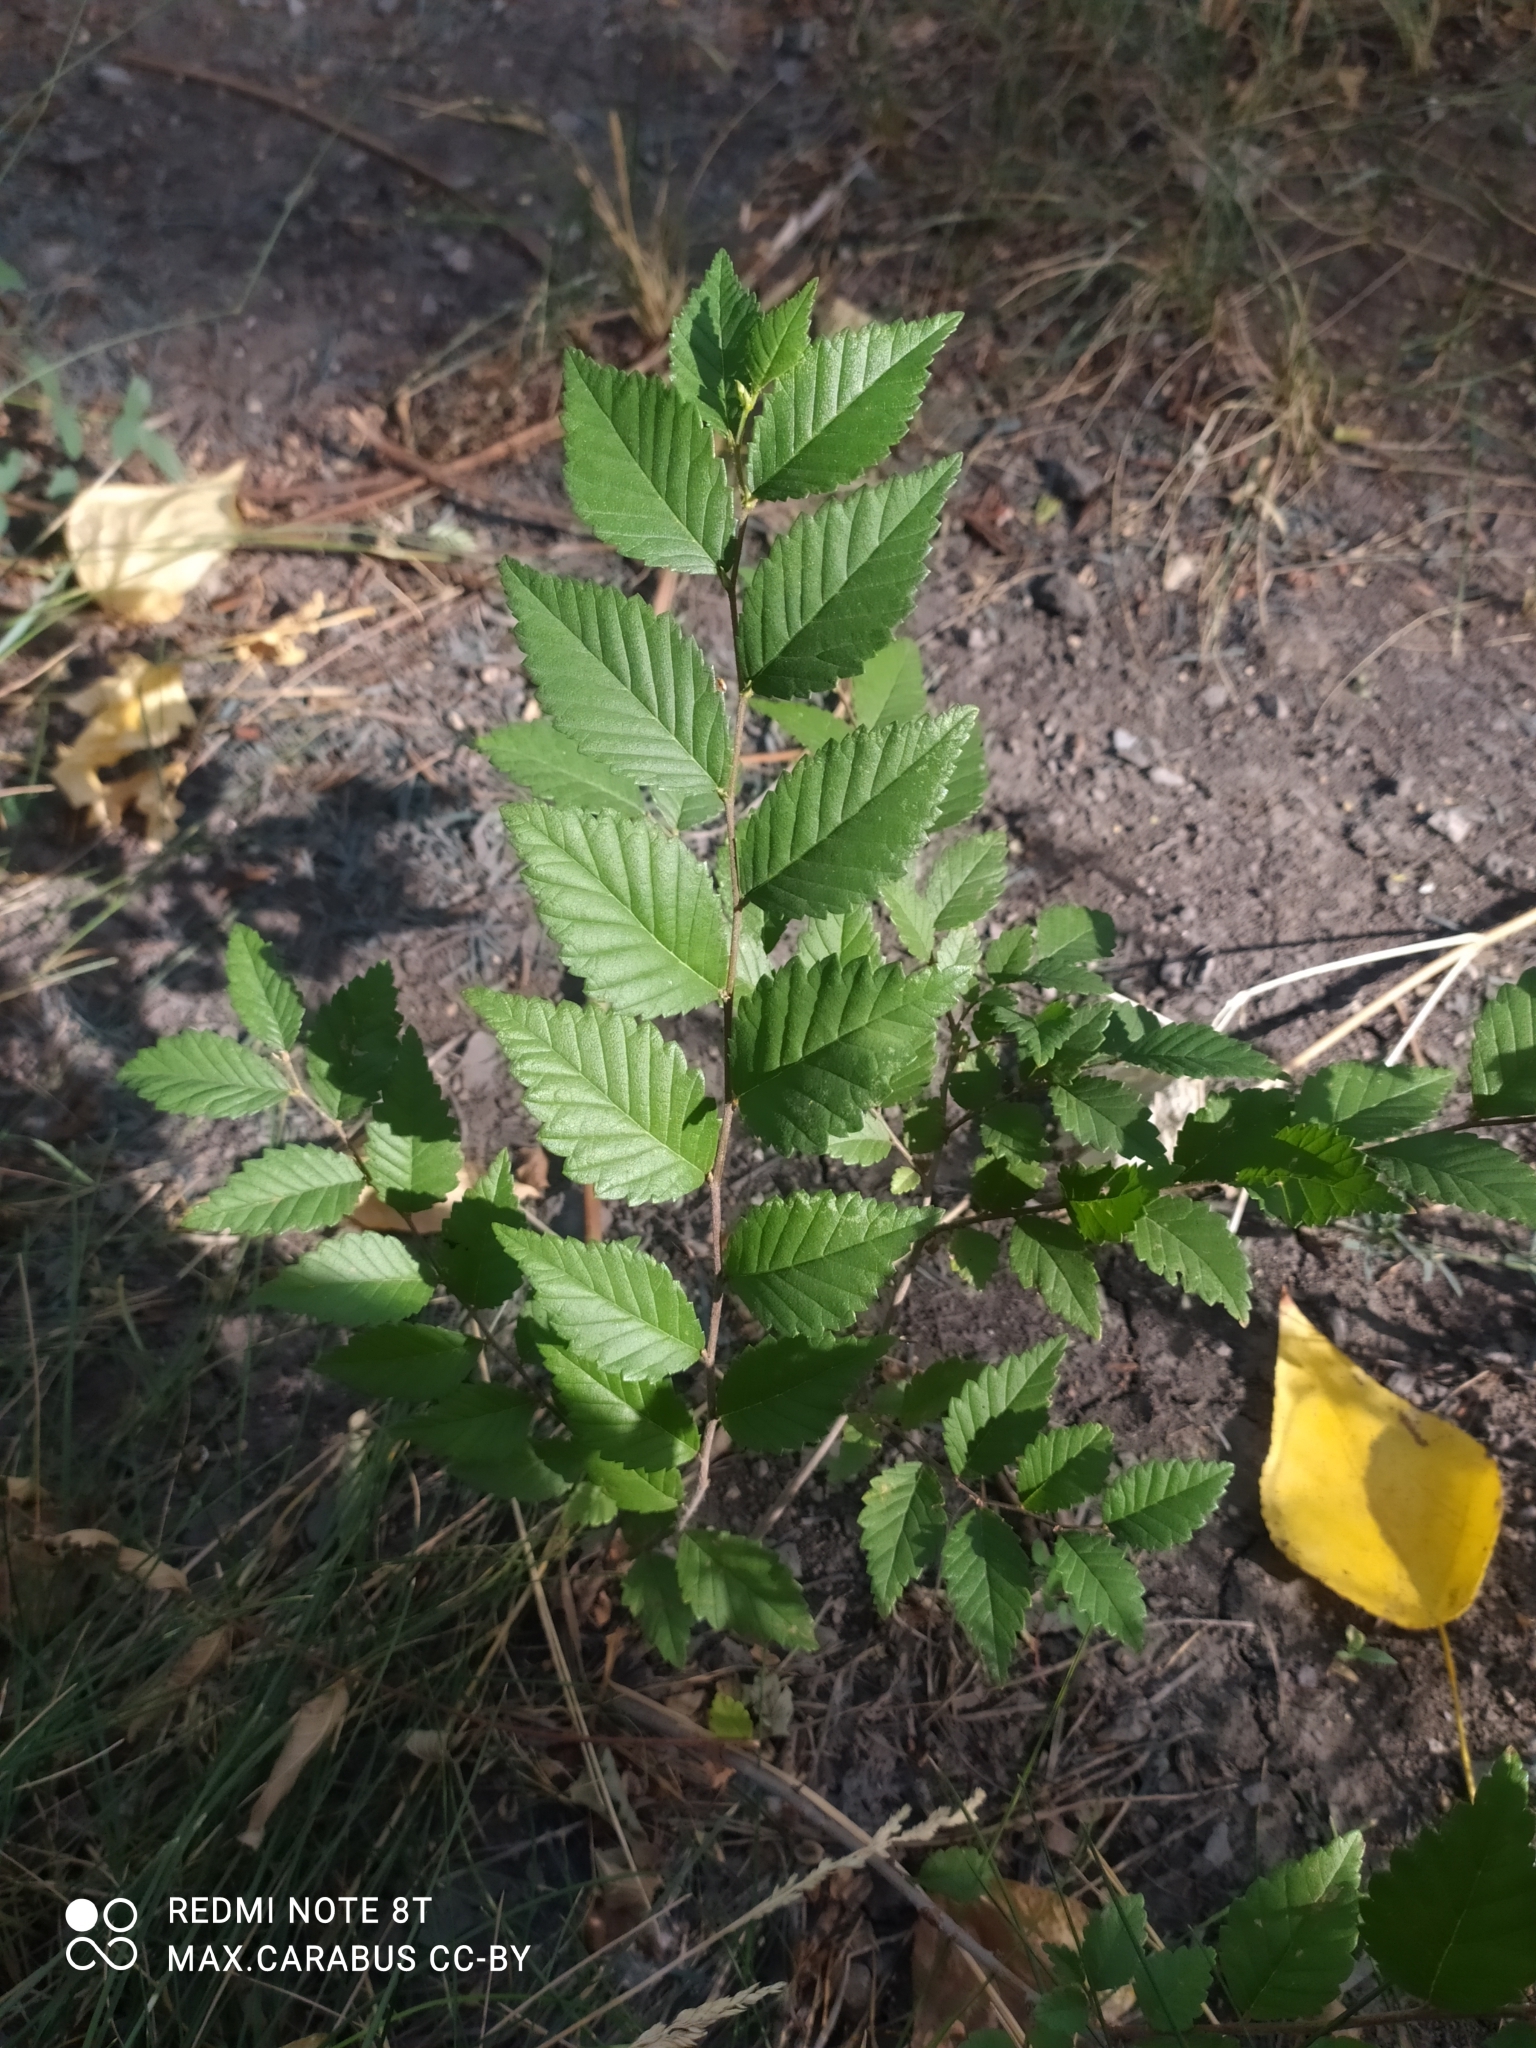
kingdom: Plantae
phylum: Tracheophyta
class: Magnoliopsida
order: Rosales
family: Ulmaceae
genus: Ulmus
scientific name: Ulmus pumila
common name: Siberian elm
